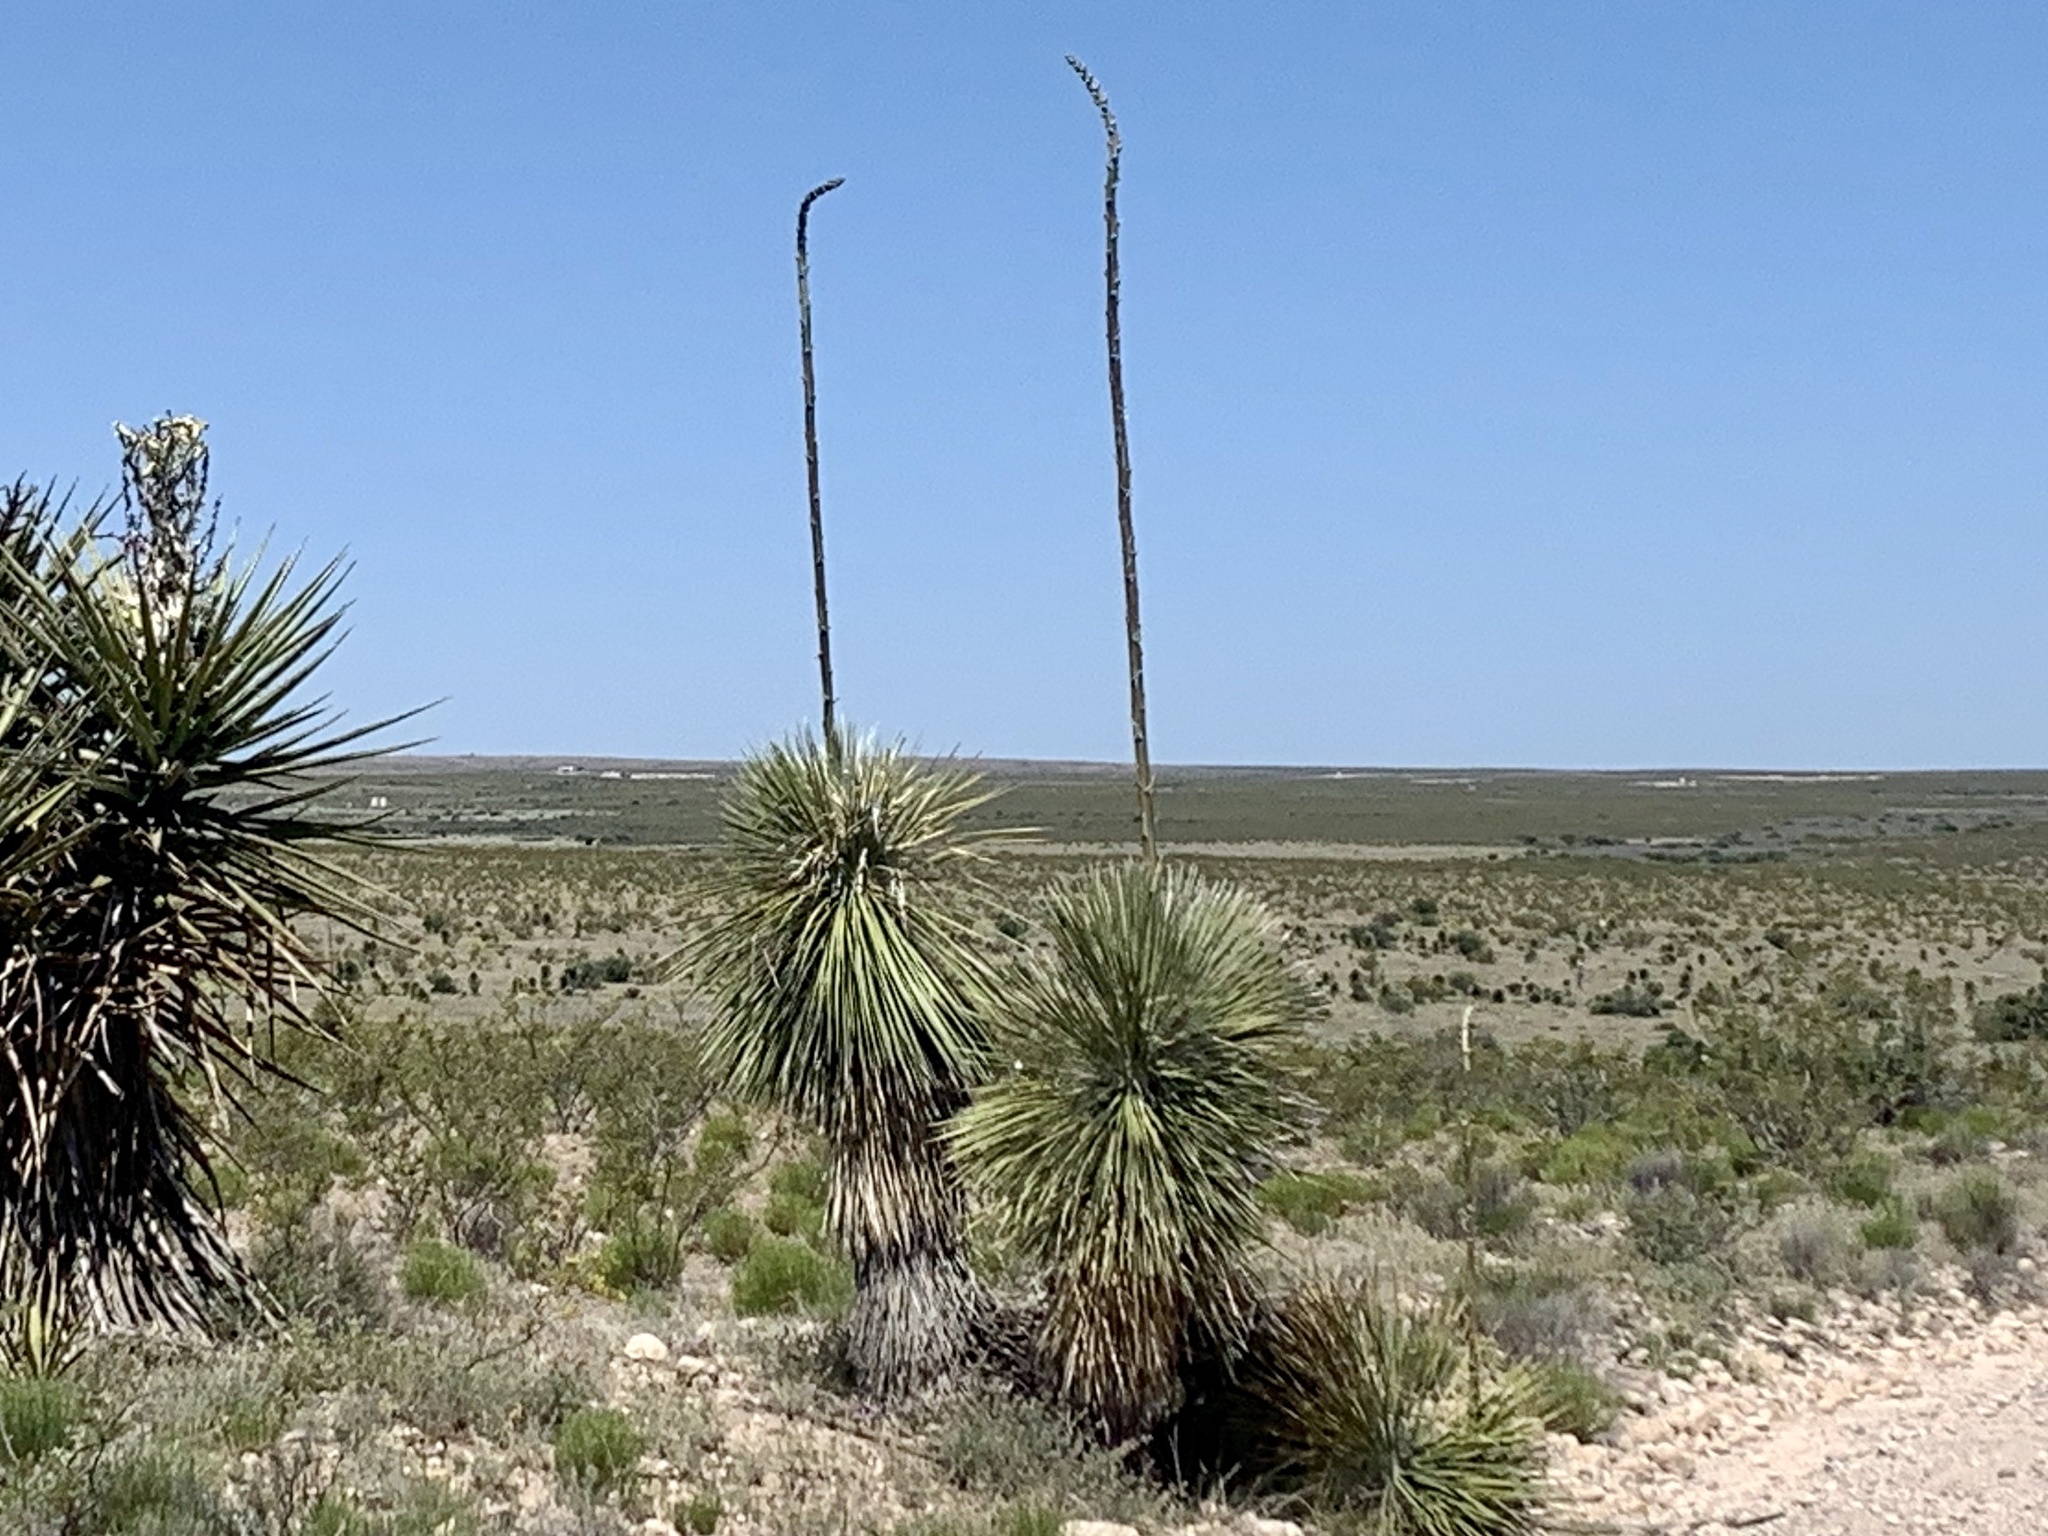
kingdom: Plantae
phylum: Tracheophyta
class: Liliopsida
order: Asparagales
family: Asparagaceae
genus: Yucca
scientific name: Yucca elata
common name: Palmella
